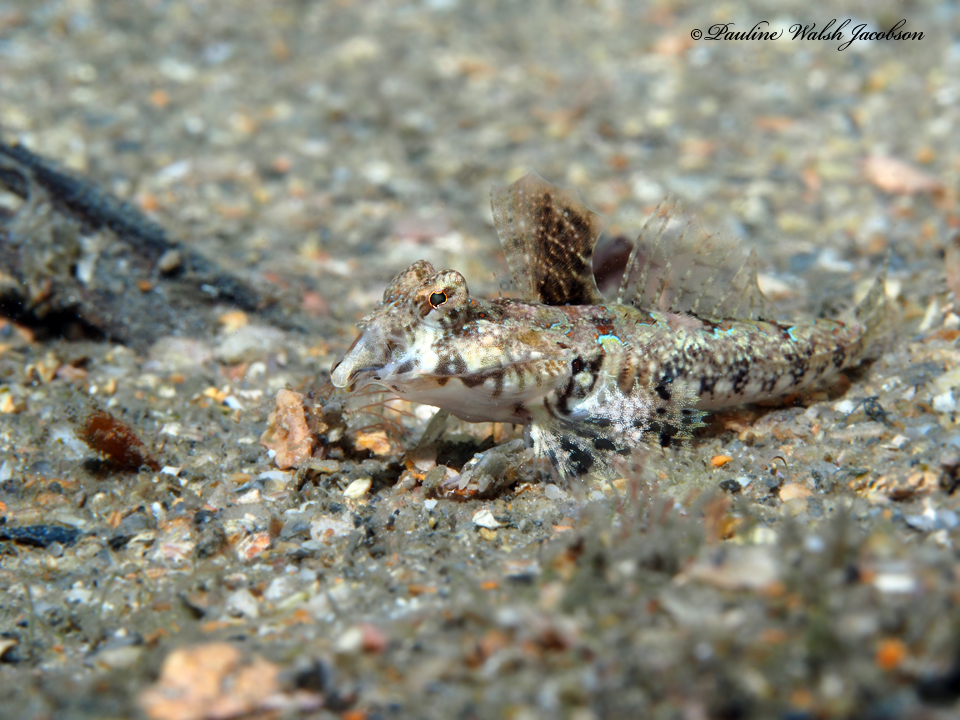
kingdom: Animalia
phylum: Chordata
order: Perciformes
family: Callionymidae
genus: Callionymus
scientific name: Callionymus bairdi
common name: Lancer dragonet
